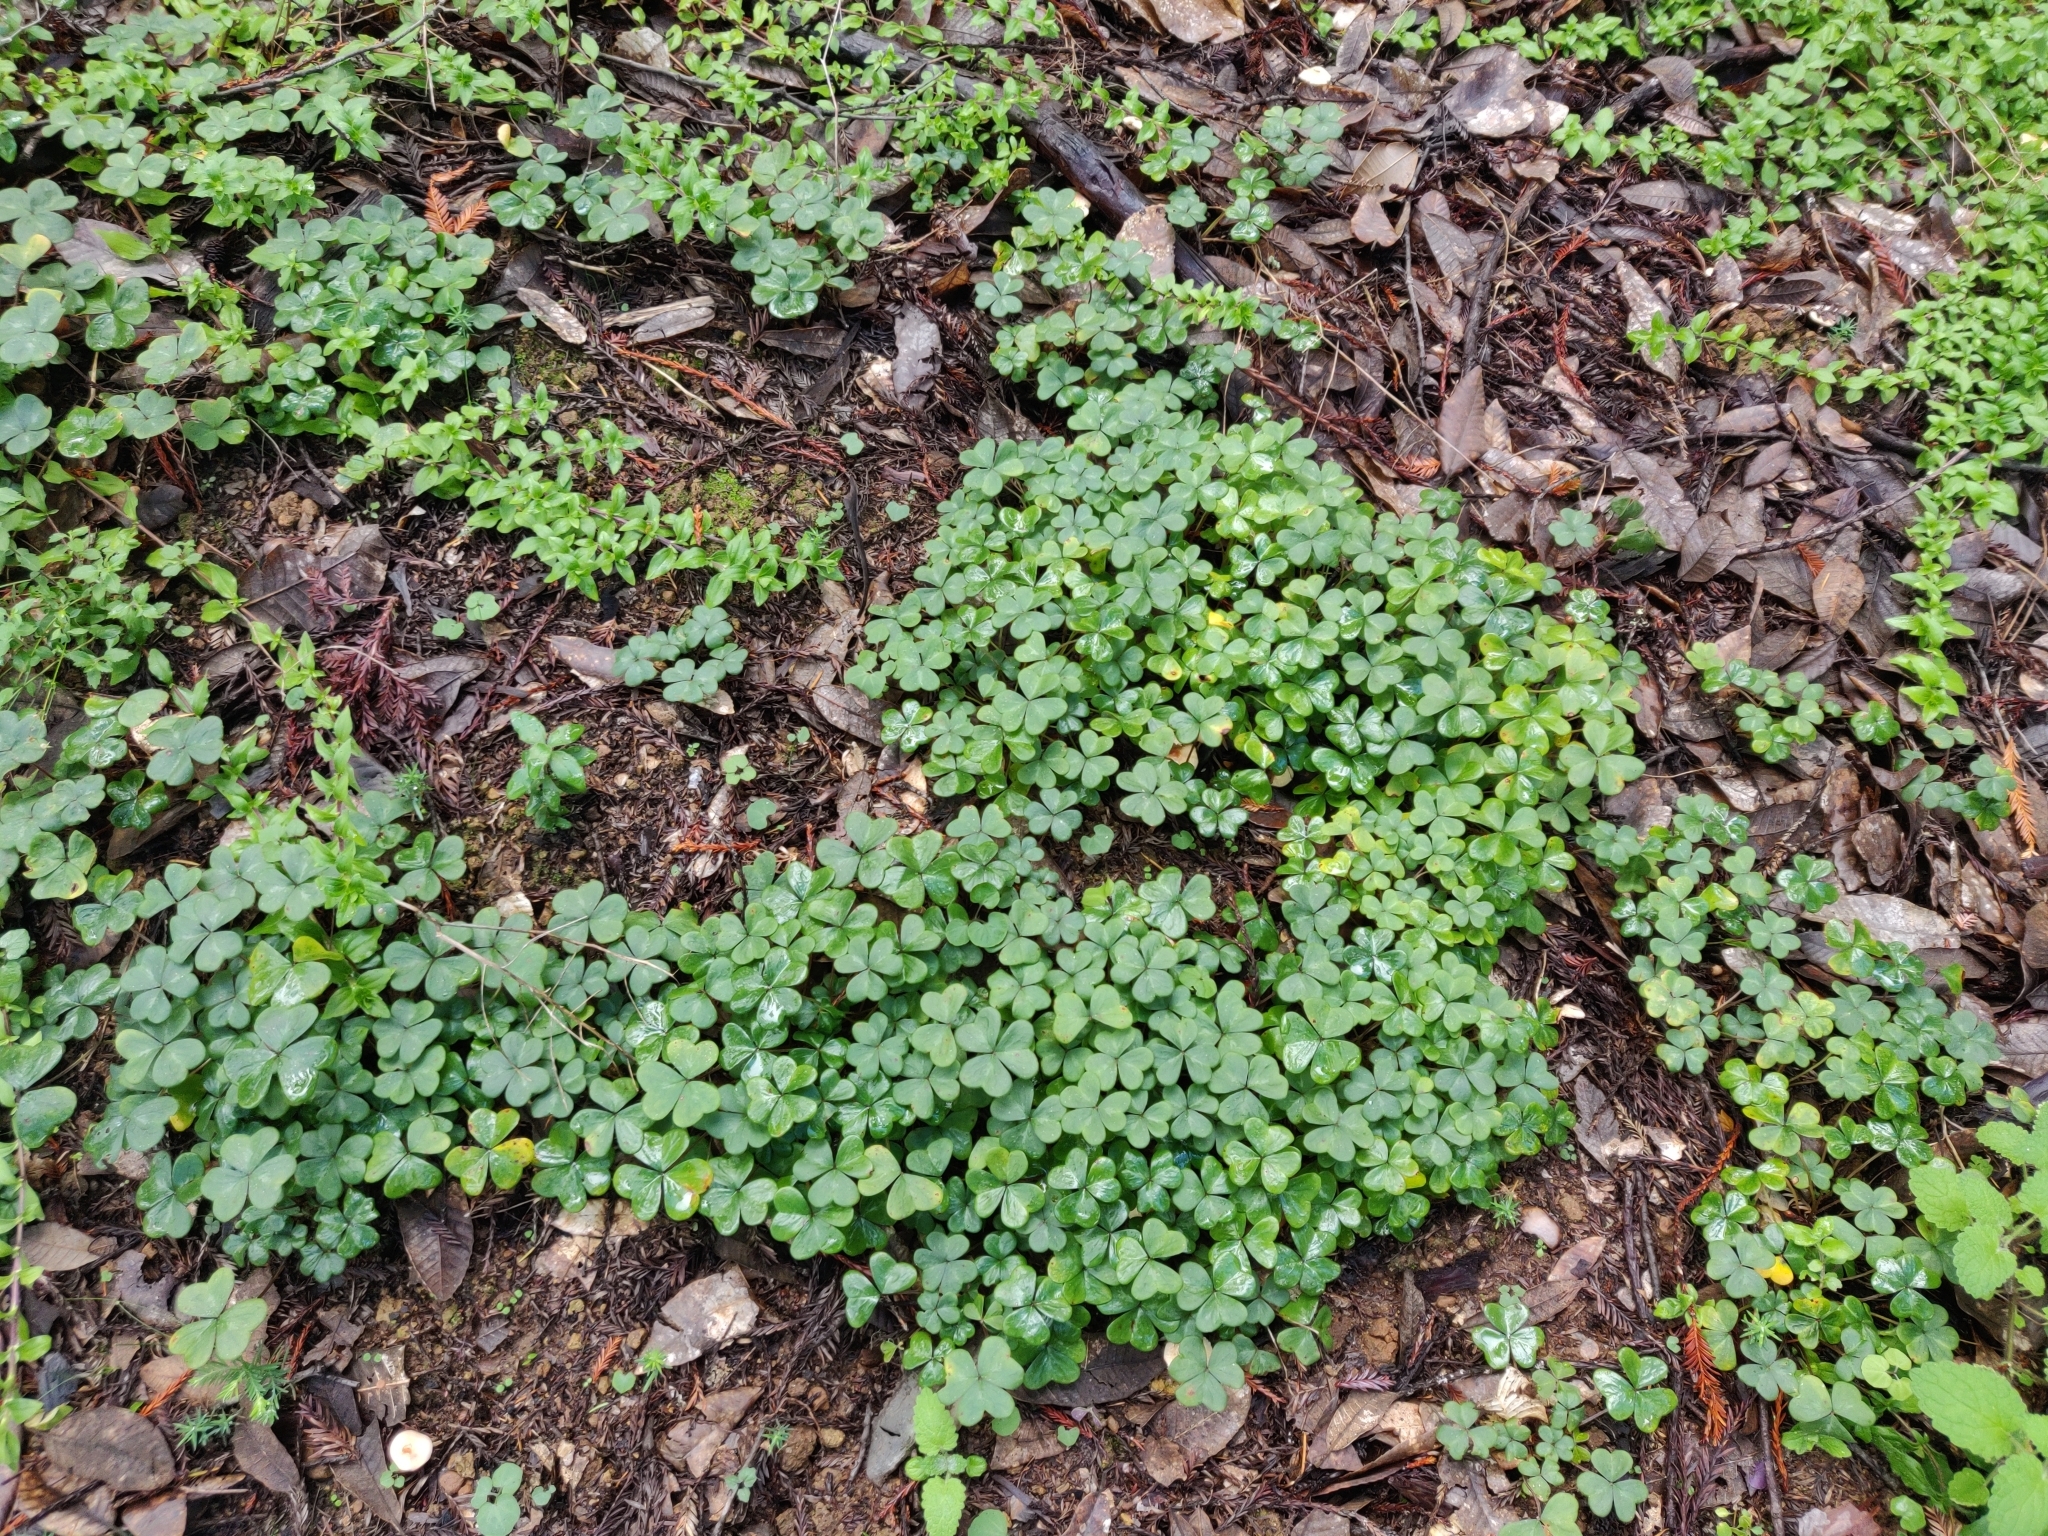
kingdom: Plantae
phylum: Tracheophyta
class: Magnoliopsida
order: Oxalidales
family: Oxalidaceae
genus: Oxalis
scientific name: Oxalis oregana
